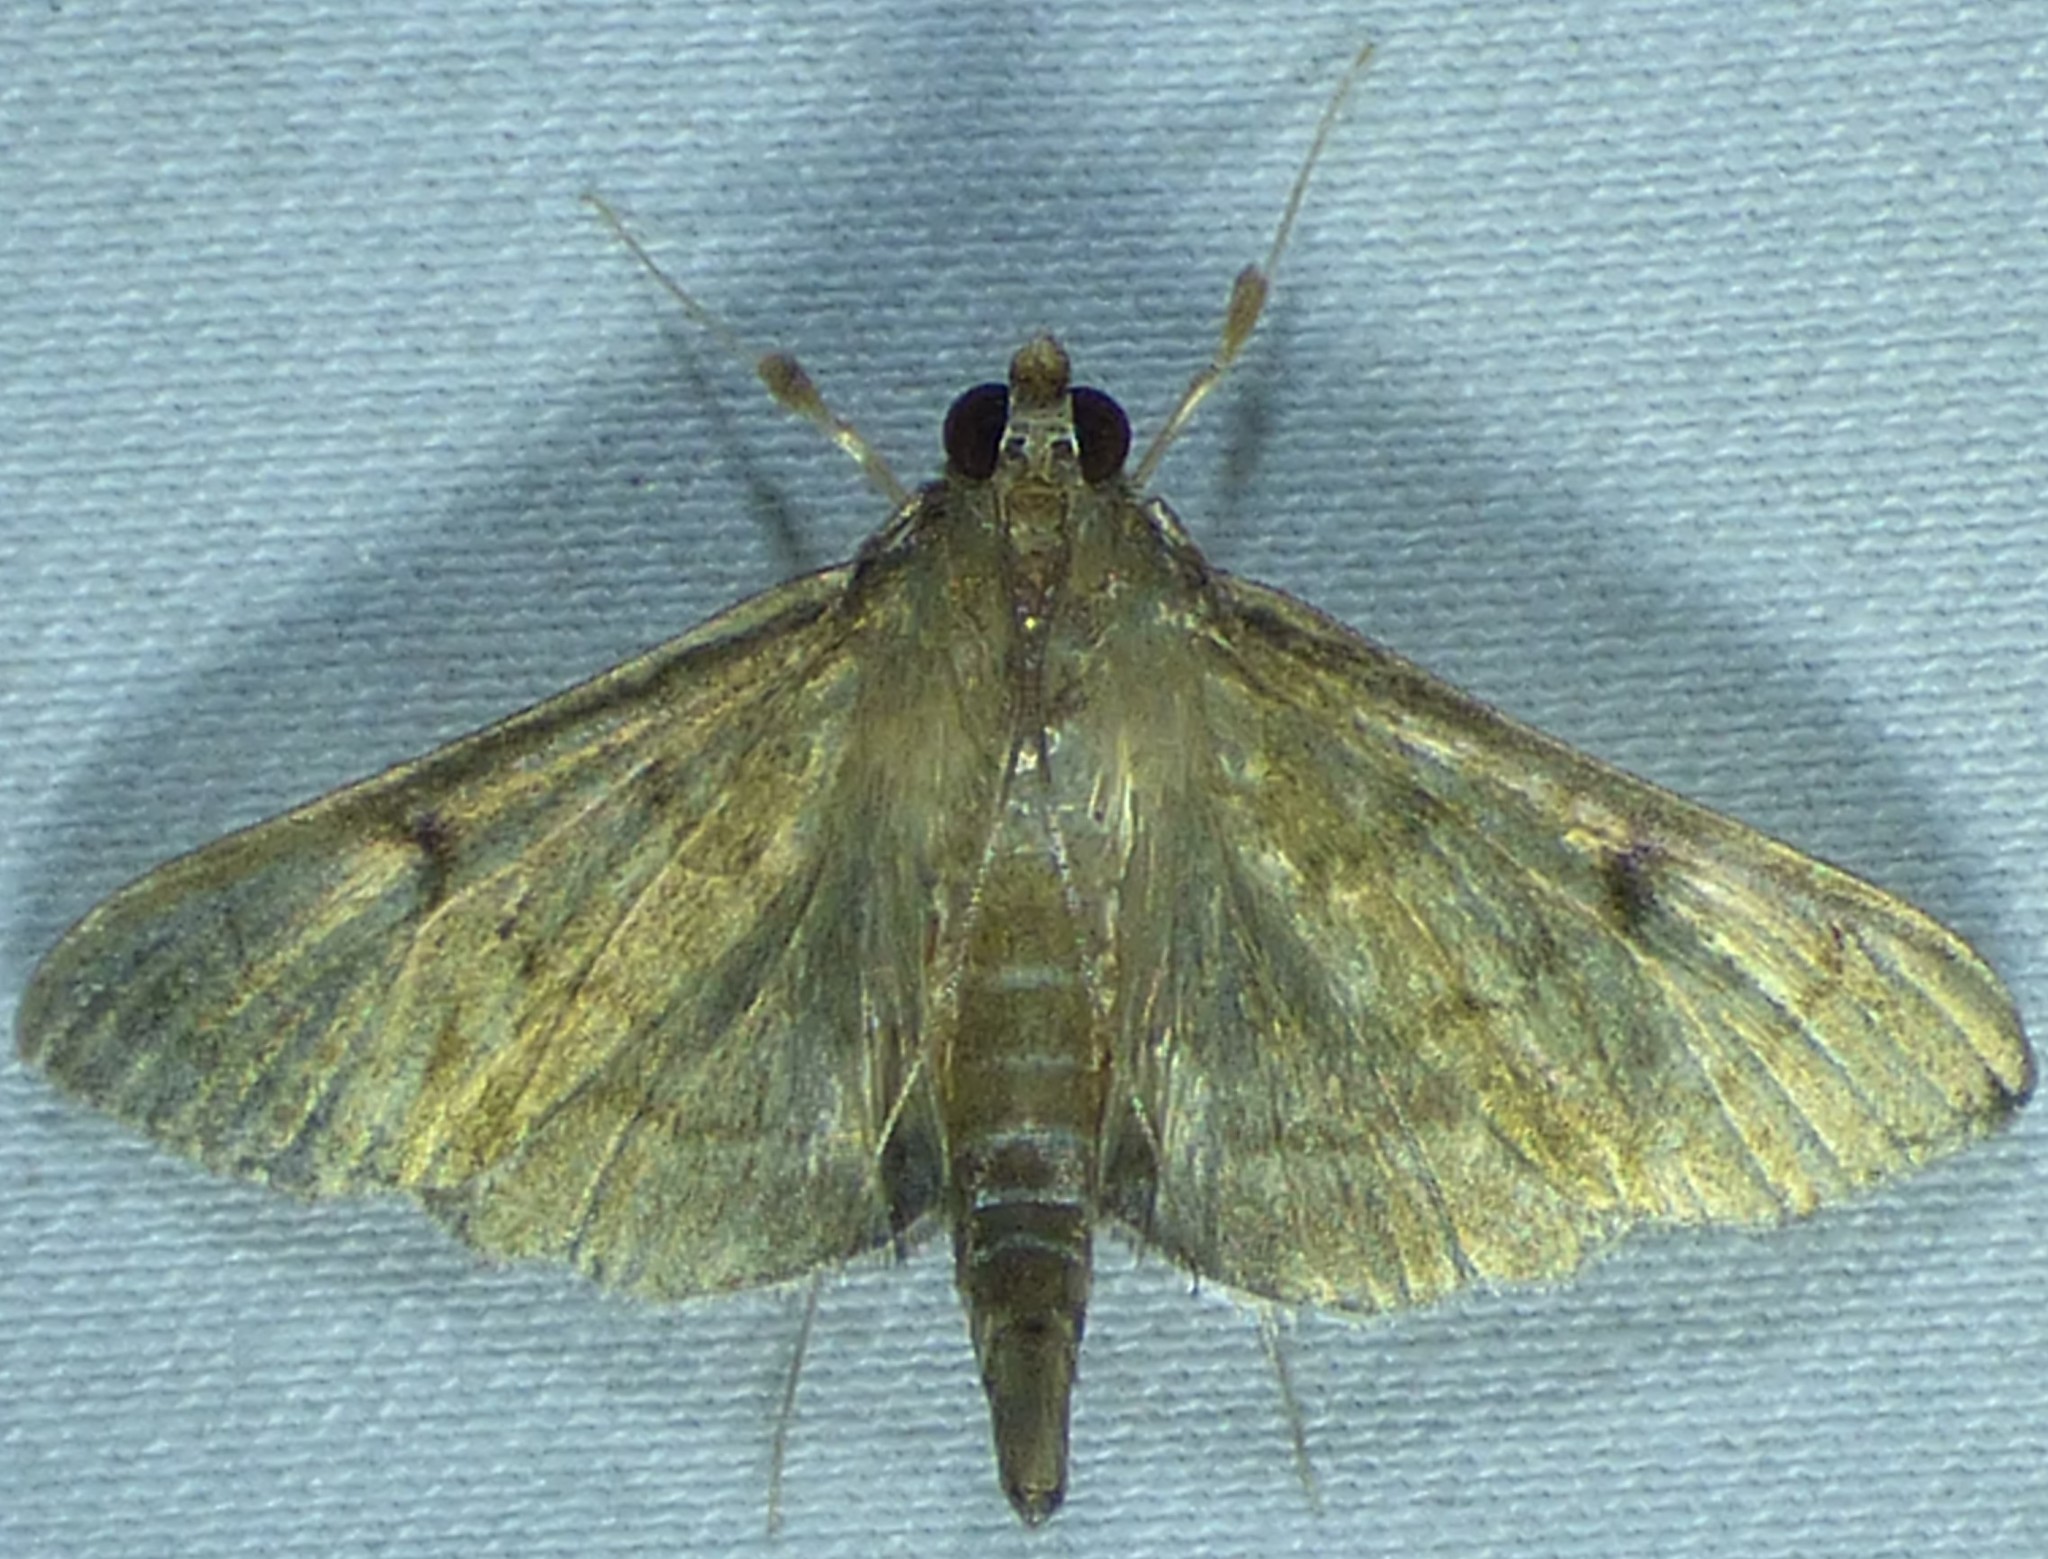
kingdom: Animalia
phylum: Arthropoda
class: Insecta
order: Lepidoptera
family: Crambidae
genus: Herpetogramma
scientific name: Herpetogramma phaeopteralis
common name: Dusky herpetogramma moth
